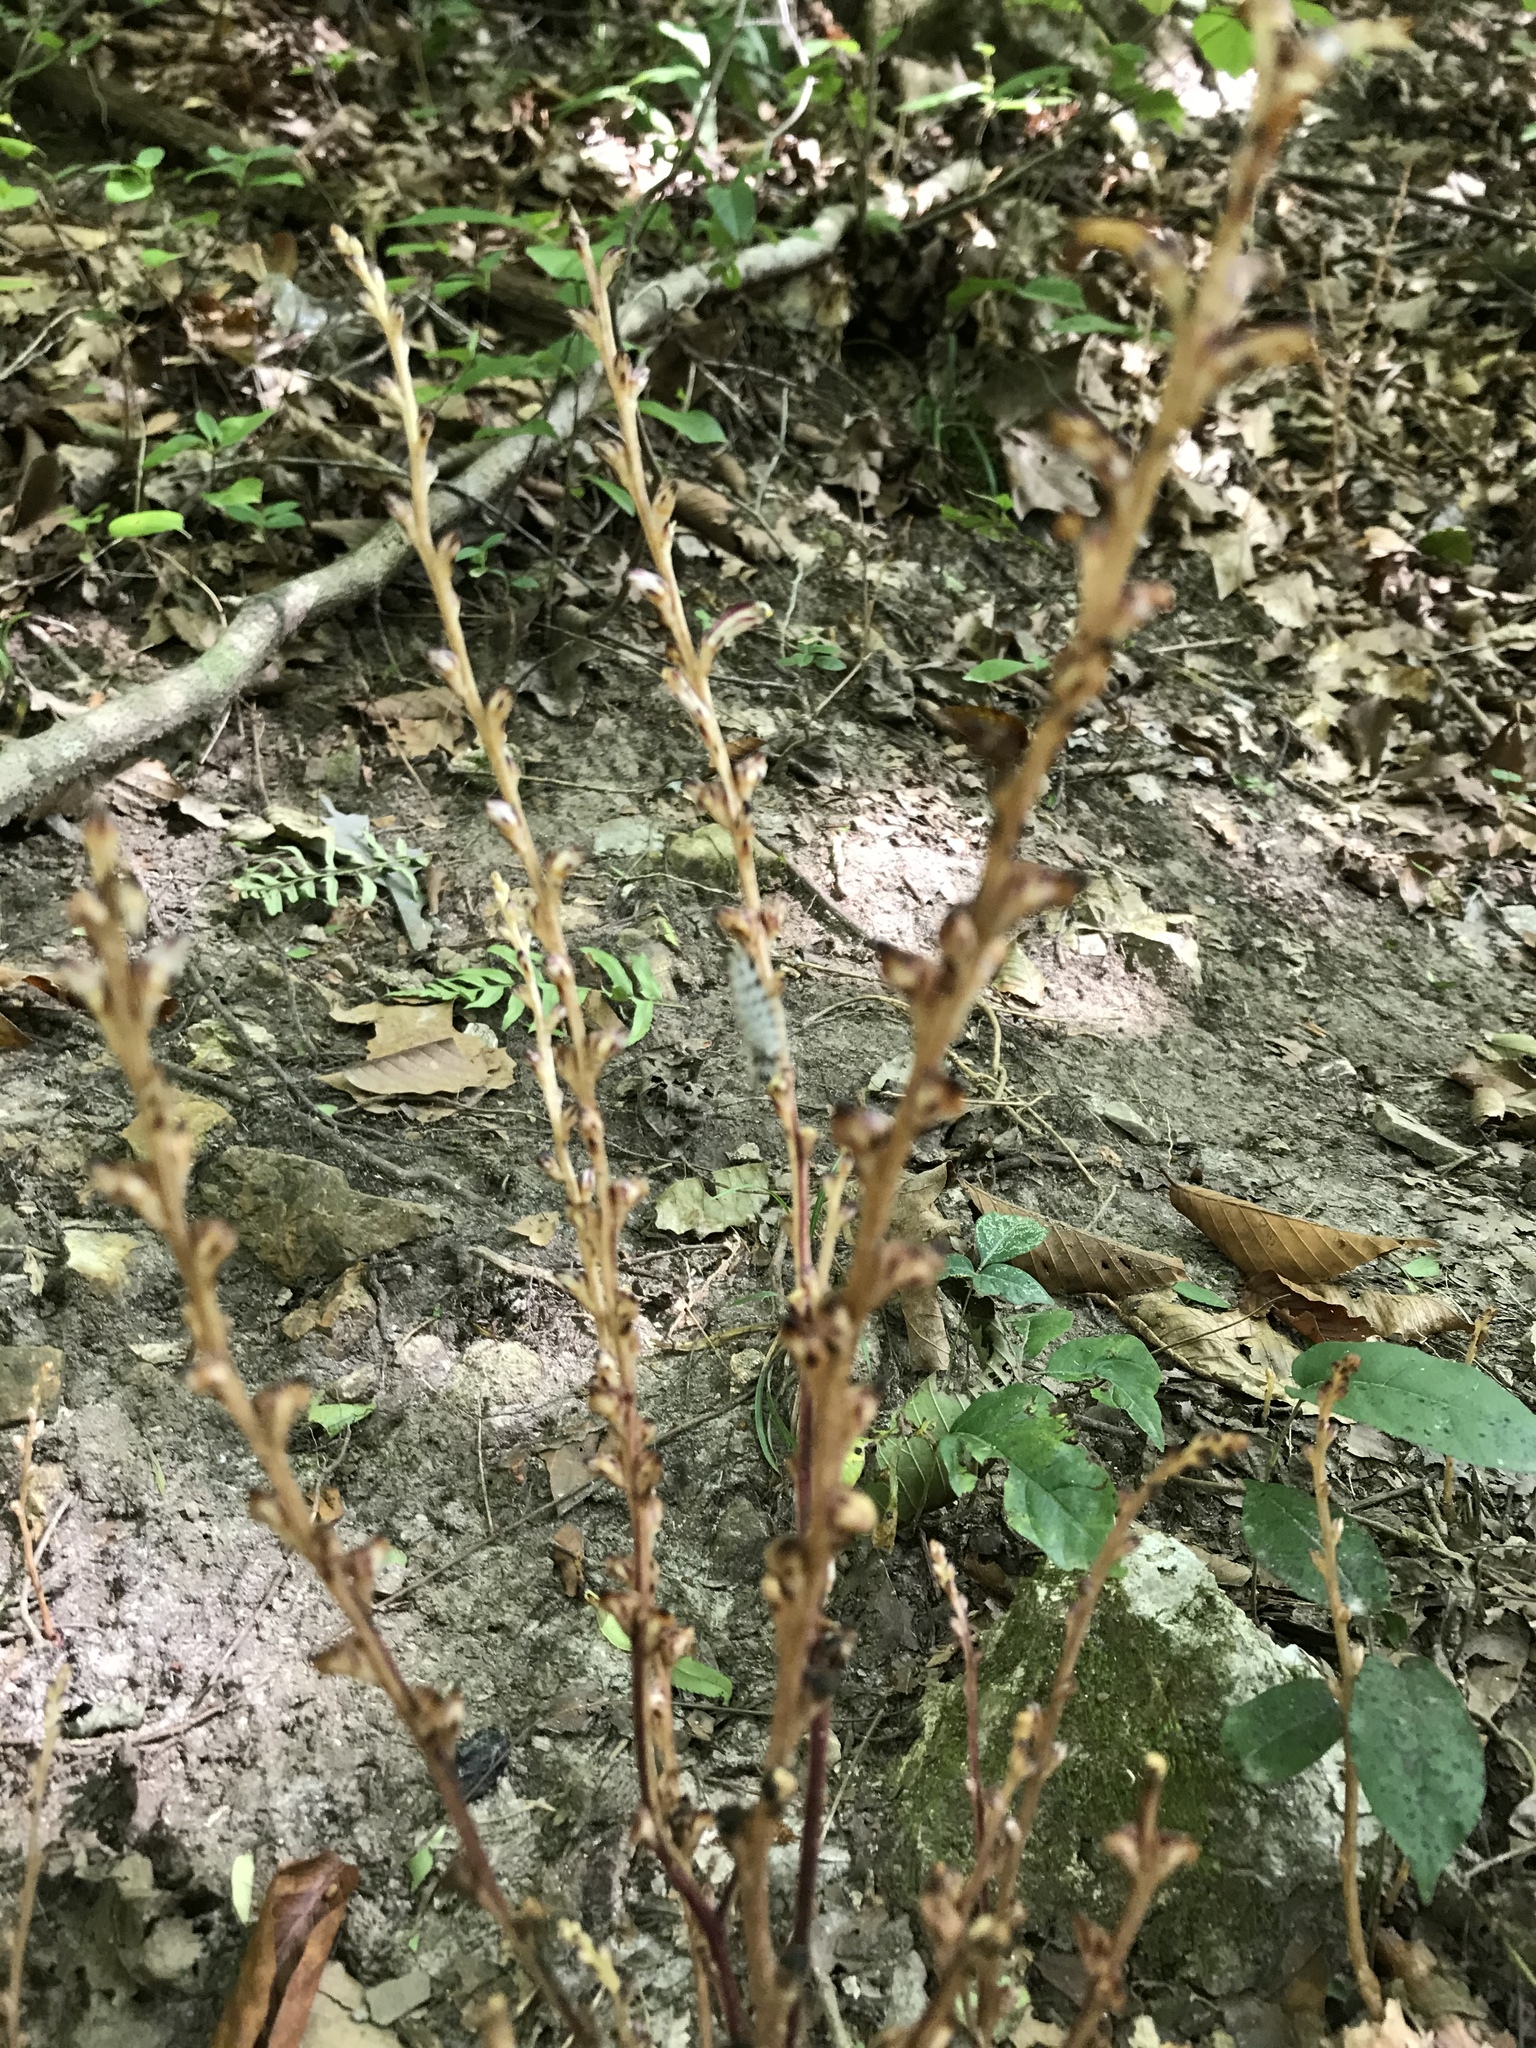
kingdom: Plantae
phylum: Tracheophyta
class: Magnoliopsida
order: Lamiales
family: Orobanchaceae
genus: Epifagus
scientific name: Epifagus virginiana
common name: Beechdrops
